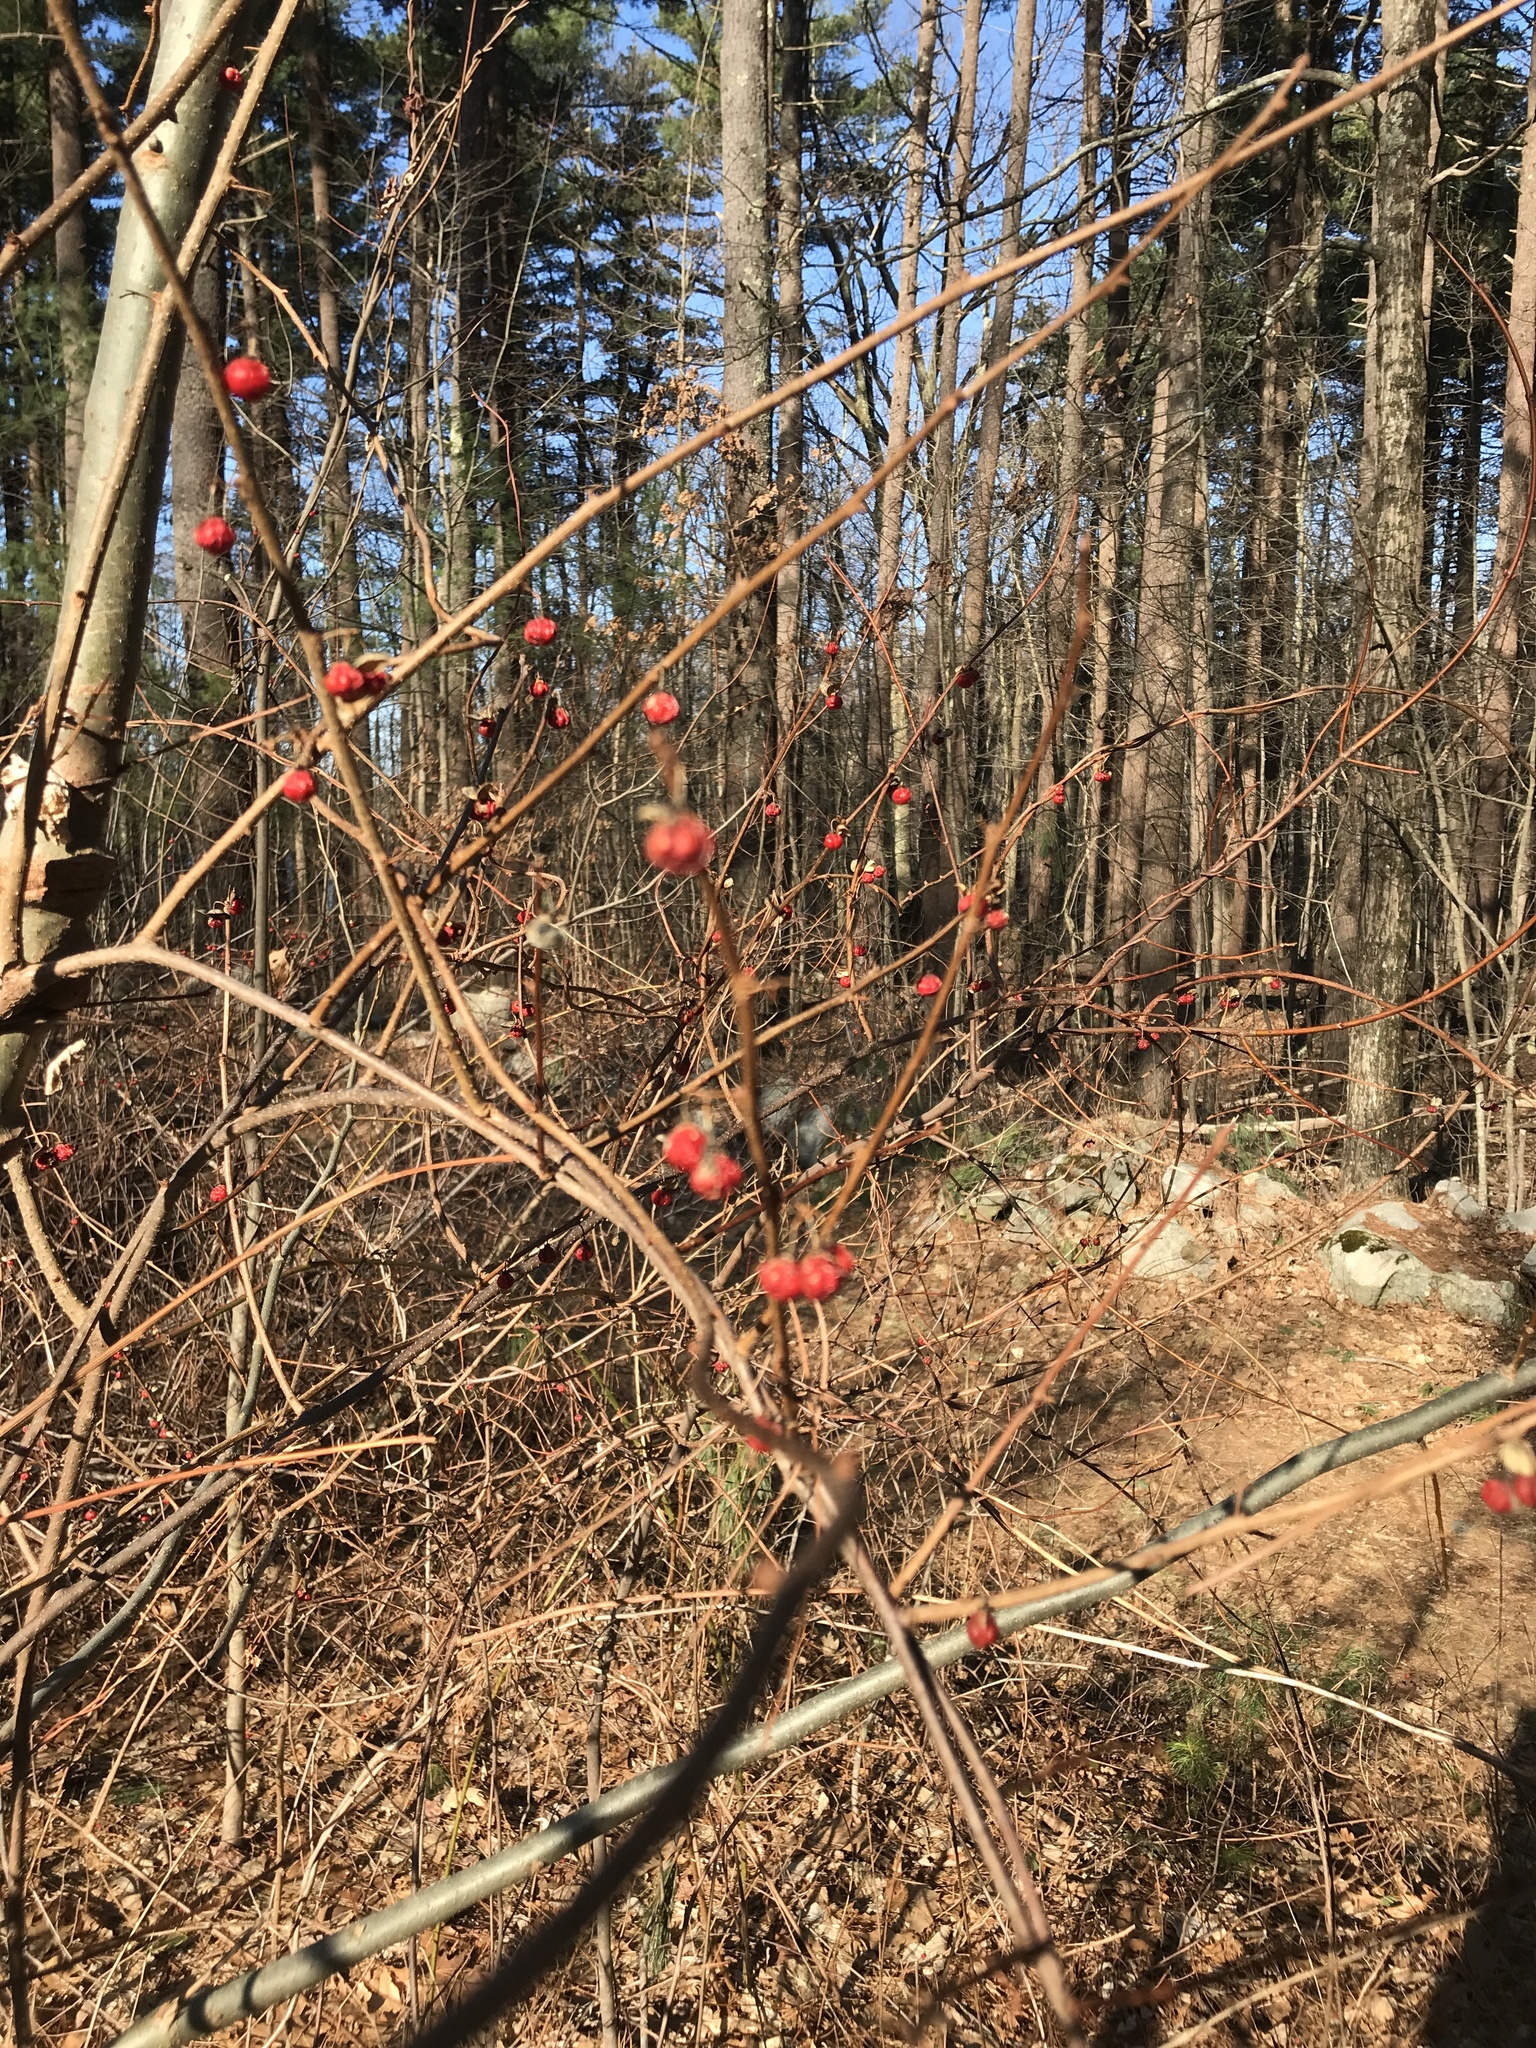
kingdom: Plantae
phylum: Tracheophyta
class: Magnoliopsida
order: Celastrales
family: Celastraceae
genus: Celastrus
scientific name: Celastrus orbiculatus
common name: Oriental bittersweet
